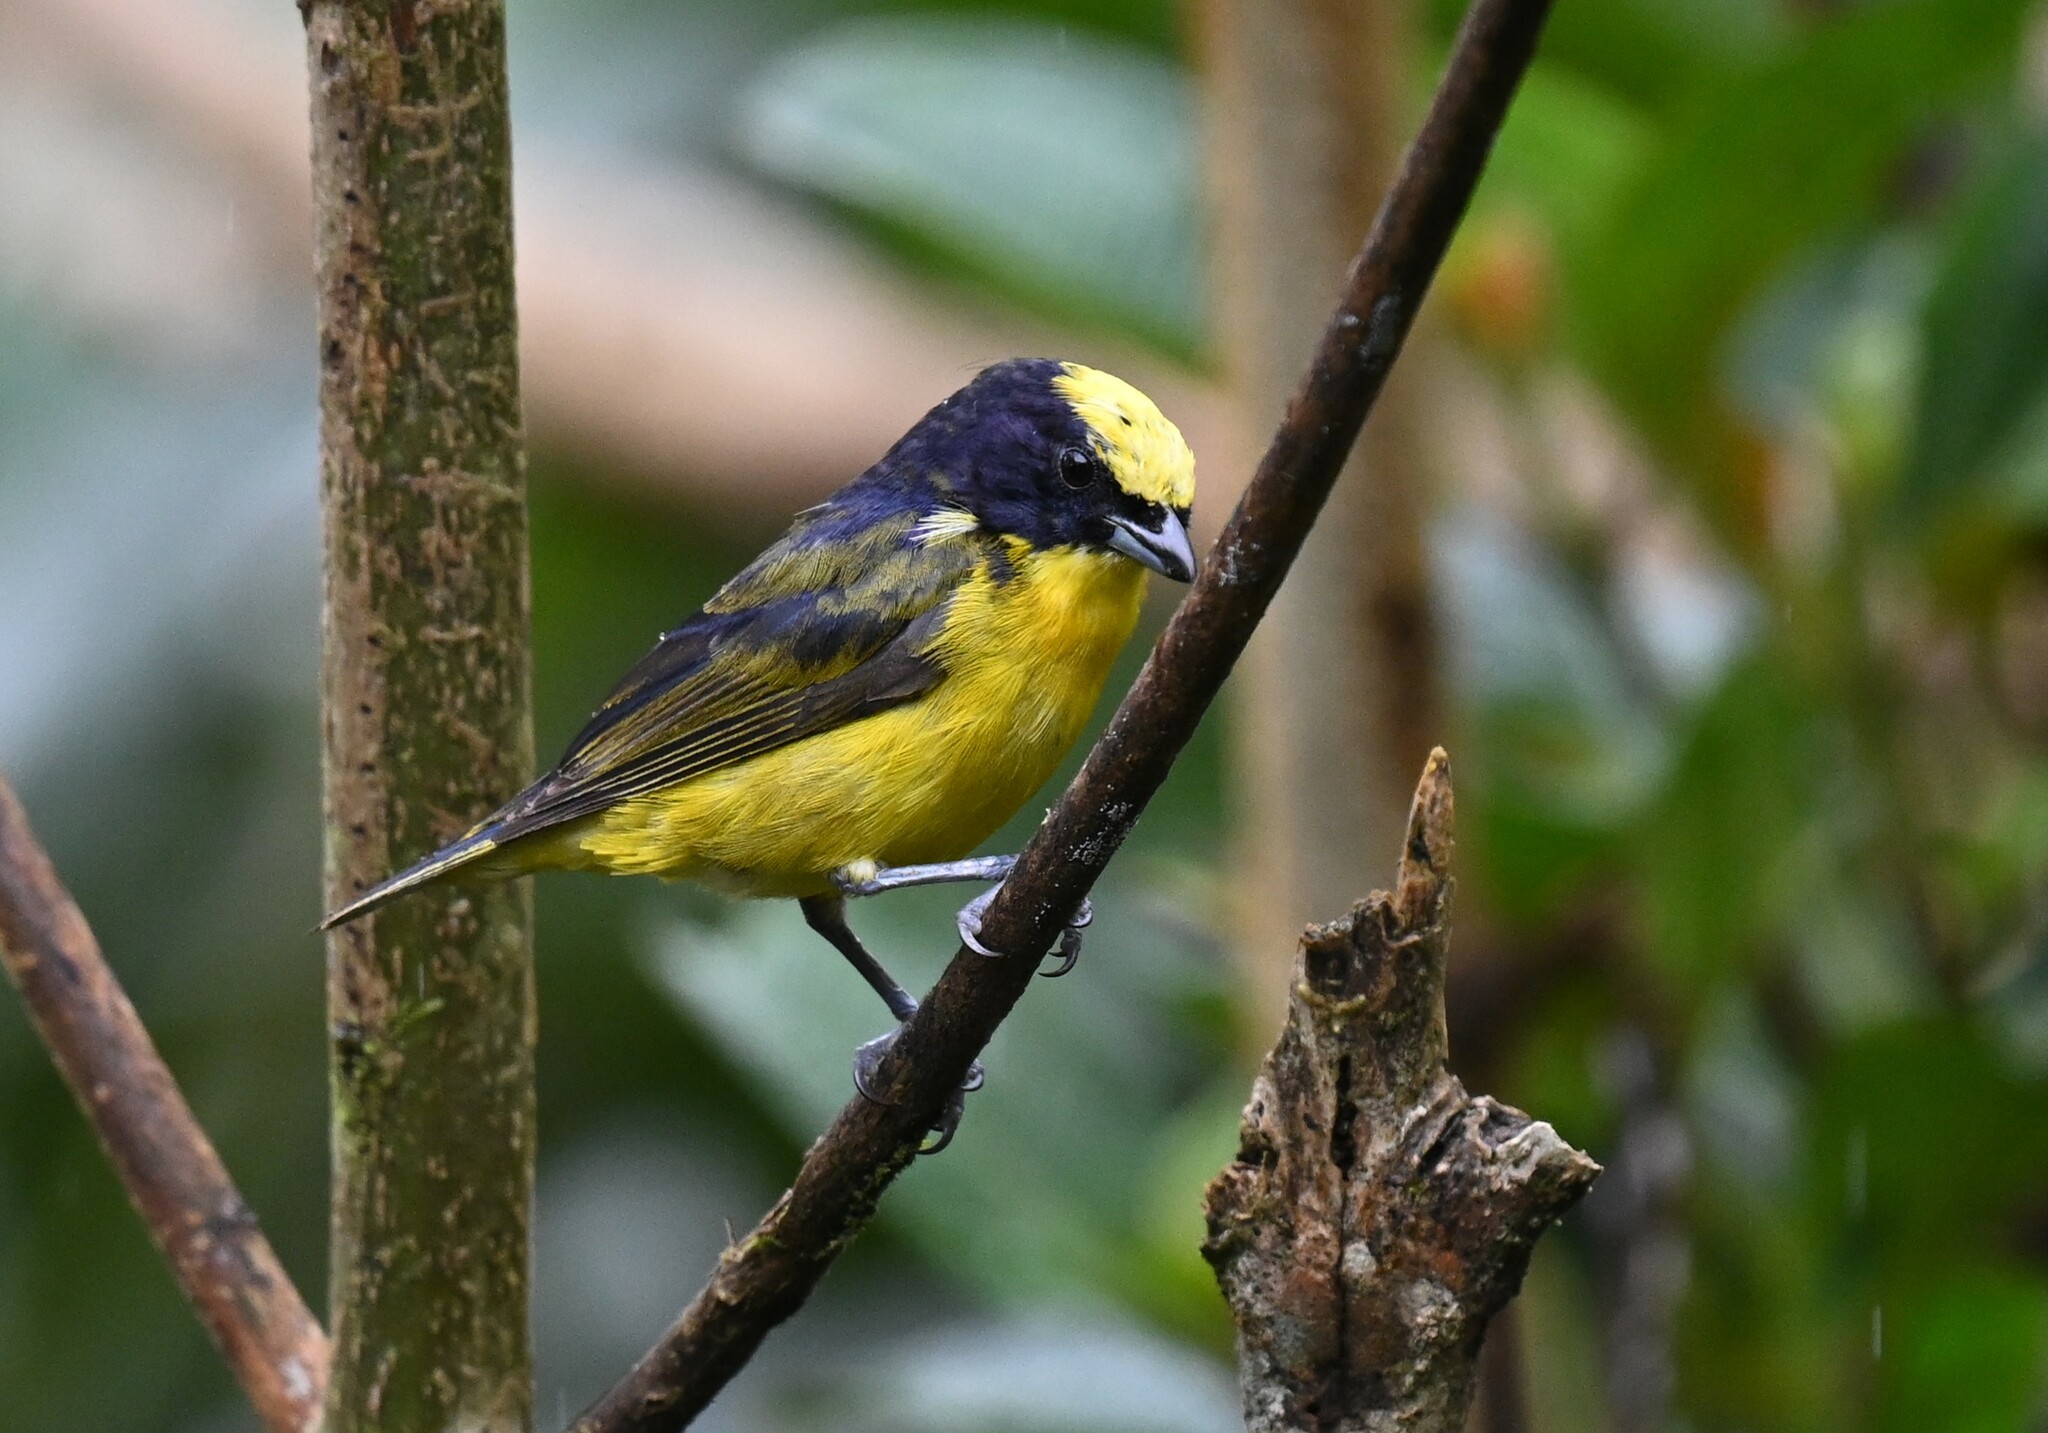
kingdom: Animalia
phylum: Chordata
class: Aves
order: Passeriformes
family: Fringillidae
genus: Euphonia
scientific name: Euphonia laniirostris
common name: Thick-billed euphonia
